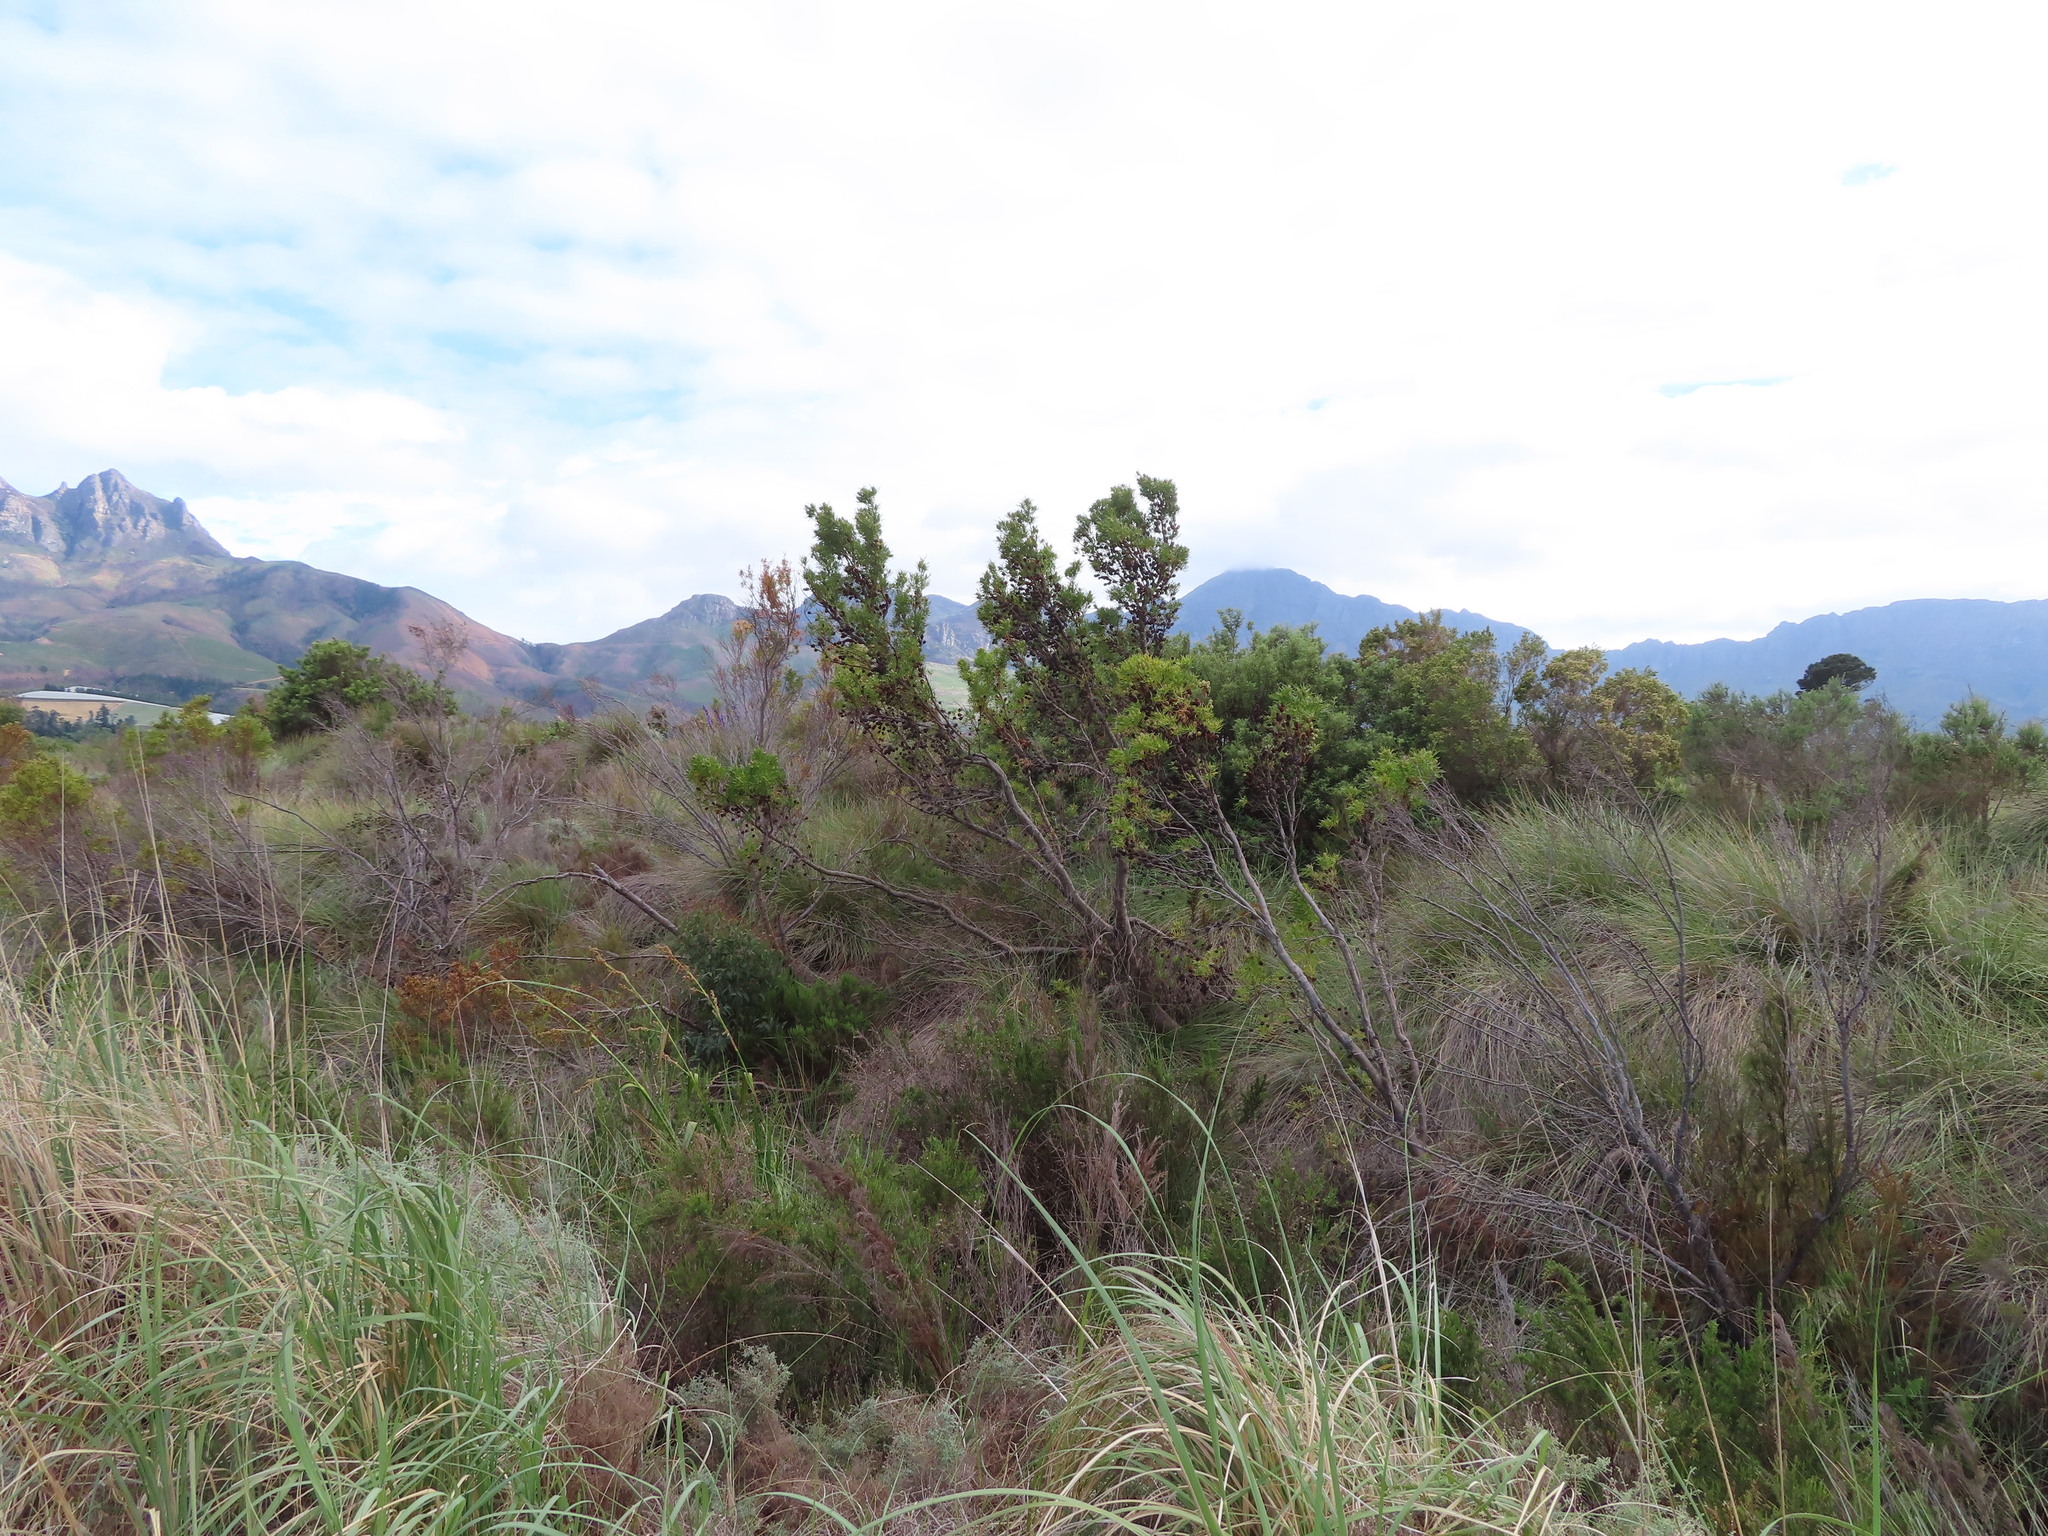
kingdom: Plantae
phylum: Tracheophyta
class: Magnoliopsida
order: Proteales
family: Proteaceae
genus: Leucadendron
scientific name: Leucadendron salicifolium
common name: Common stream conebush
